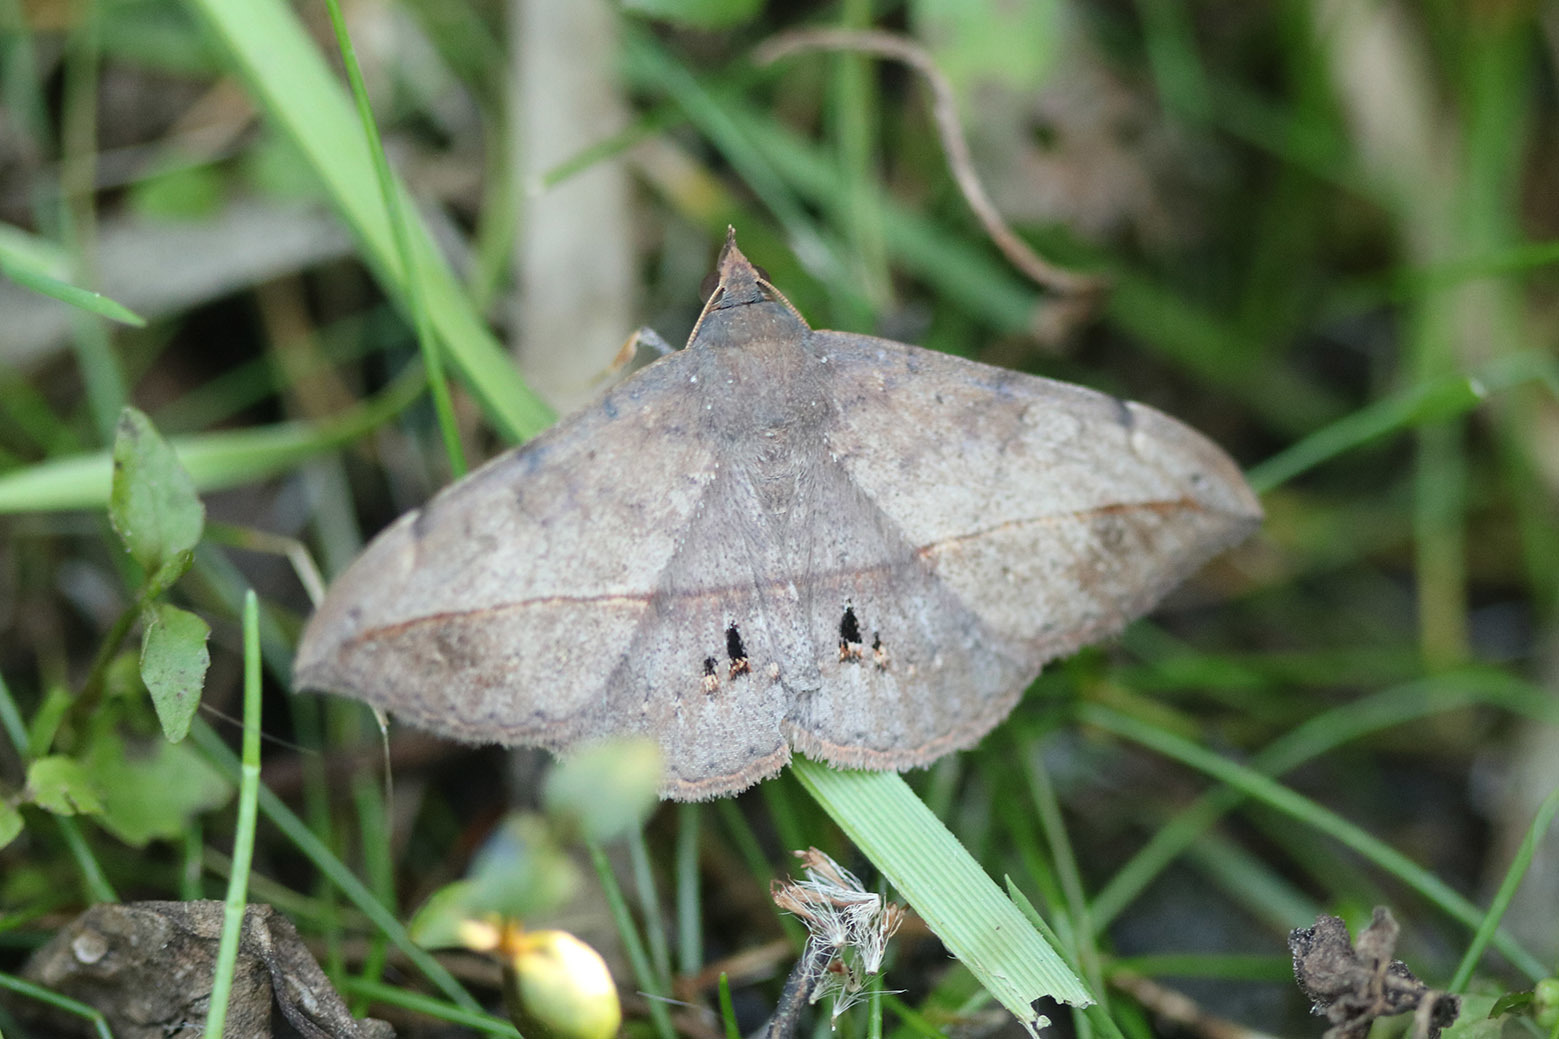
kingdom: Animalia
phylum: Arthropoda
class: Insecta
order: Lepidoptera
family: Erebidae
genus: Anticarsia
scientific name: Anticarsia gemmatalis
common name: Cutworm moth
